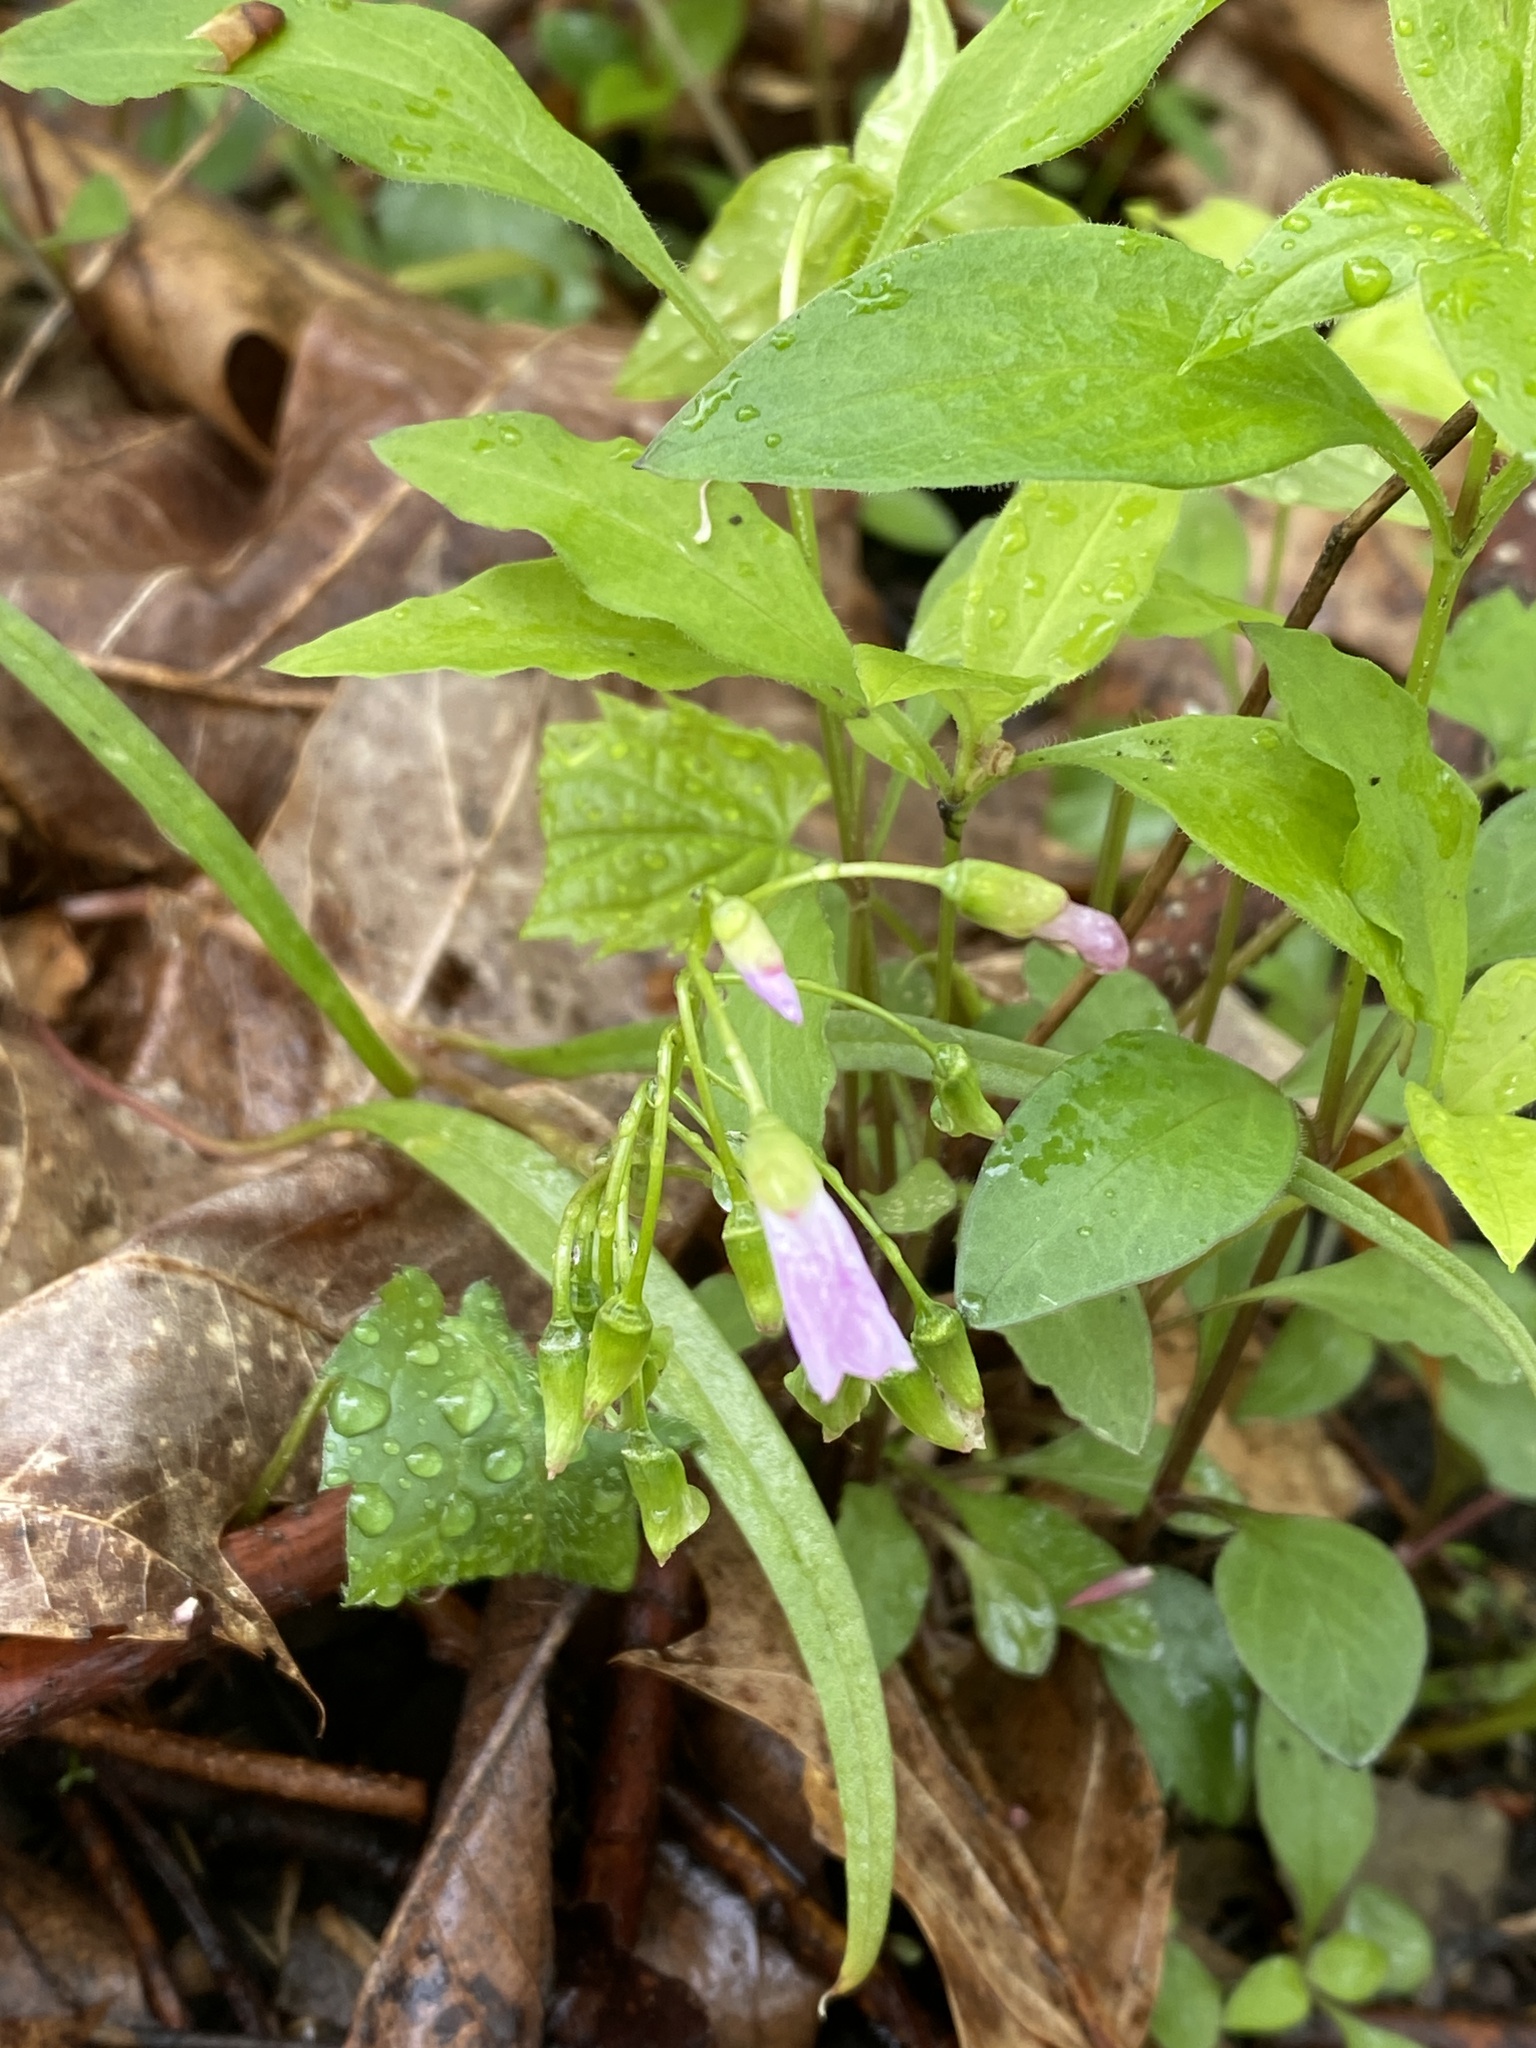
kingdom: Plantae
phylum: Tracheophyta
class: Magnoliopsida
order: Caryophyllales
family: Montiaceae
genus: Claytonia
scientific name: Claytonia virginica
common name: Virginia springbeauty
